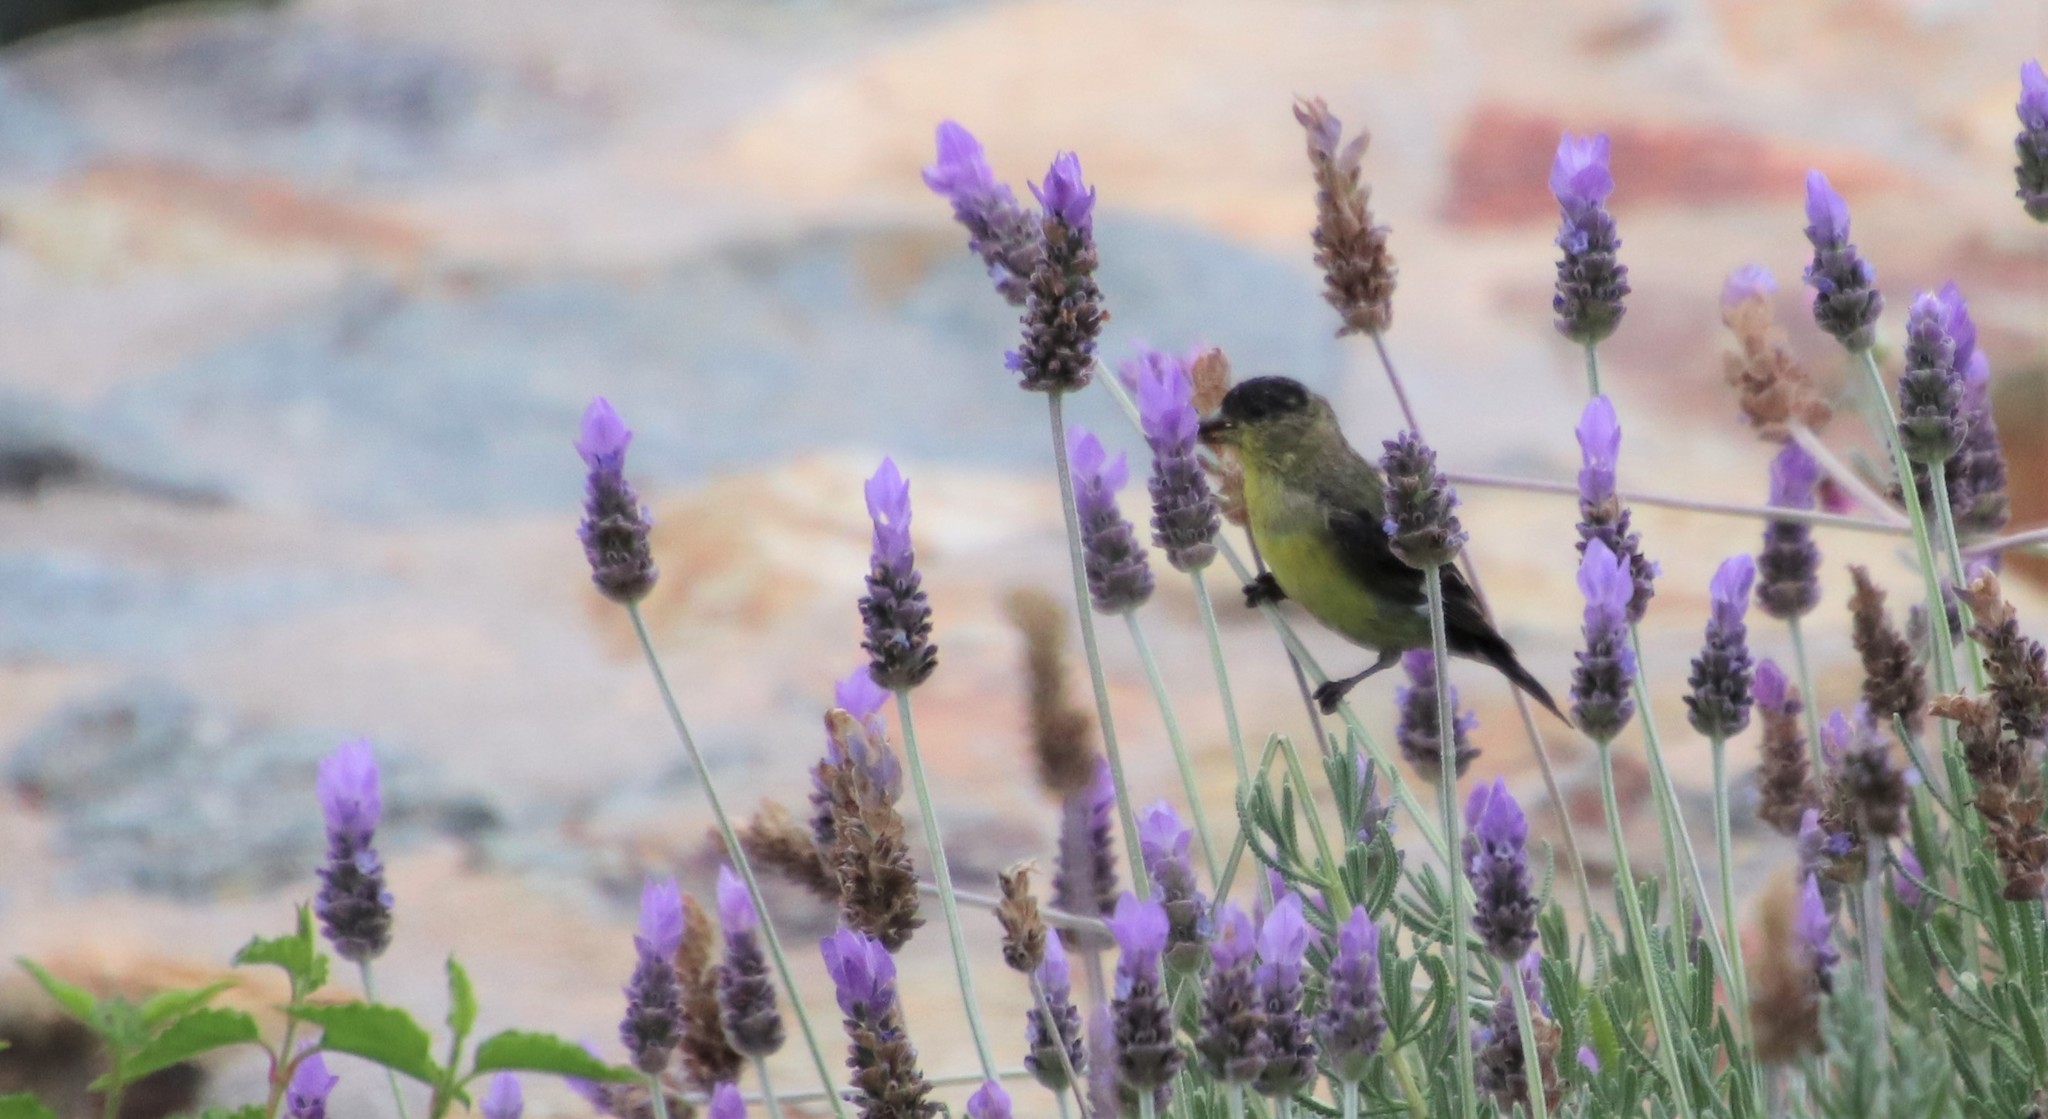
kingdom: Animalia
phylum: Chordata
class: Aves
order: Passeriformes
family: Fringillidae
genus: Spinus
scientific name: Spinus psaltria
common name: Lesser goldfinch
